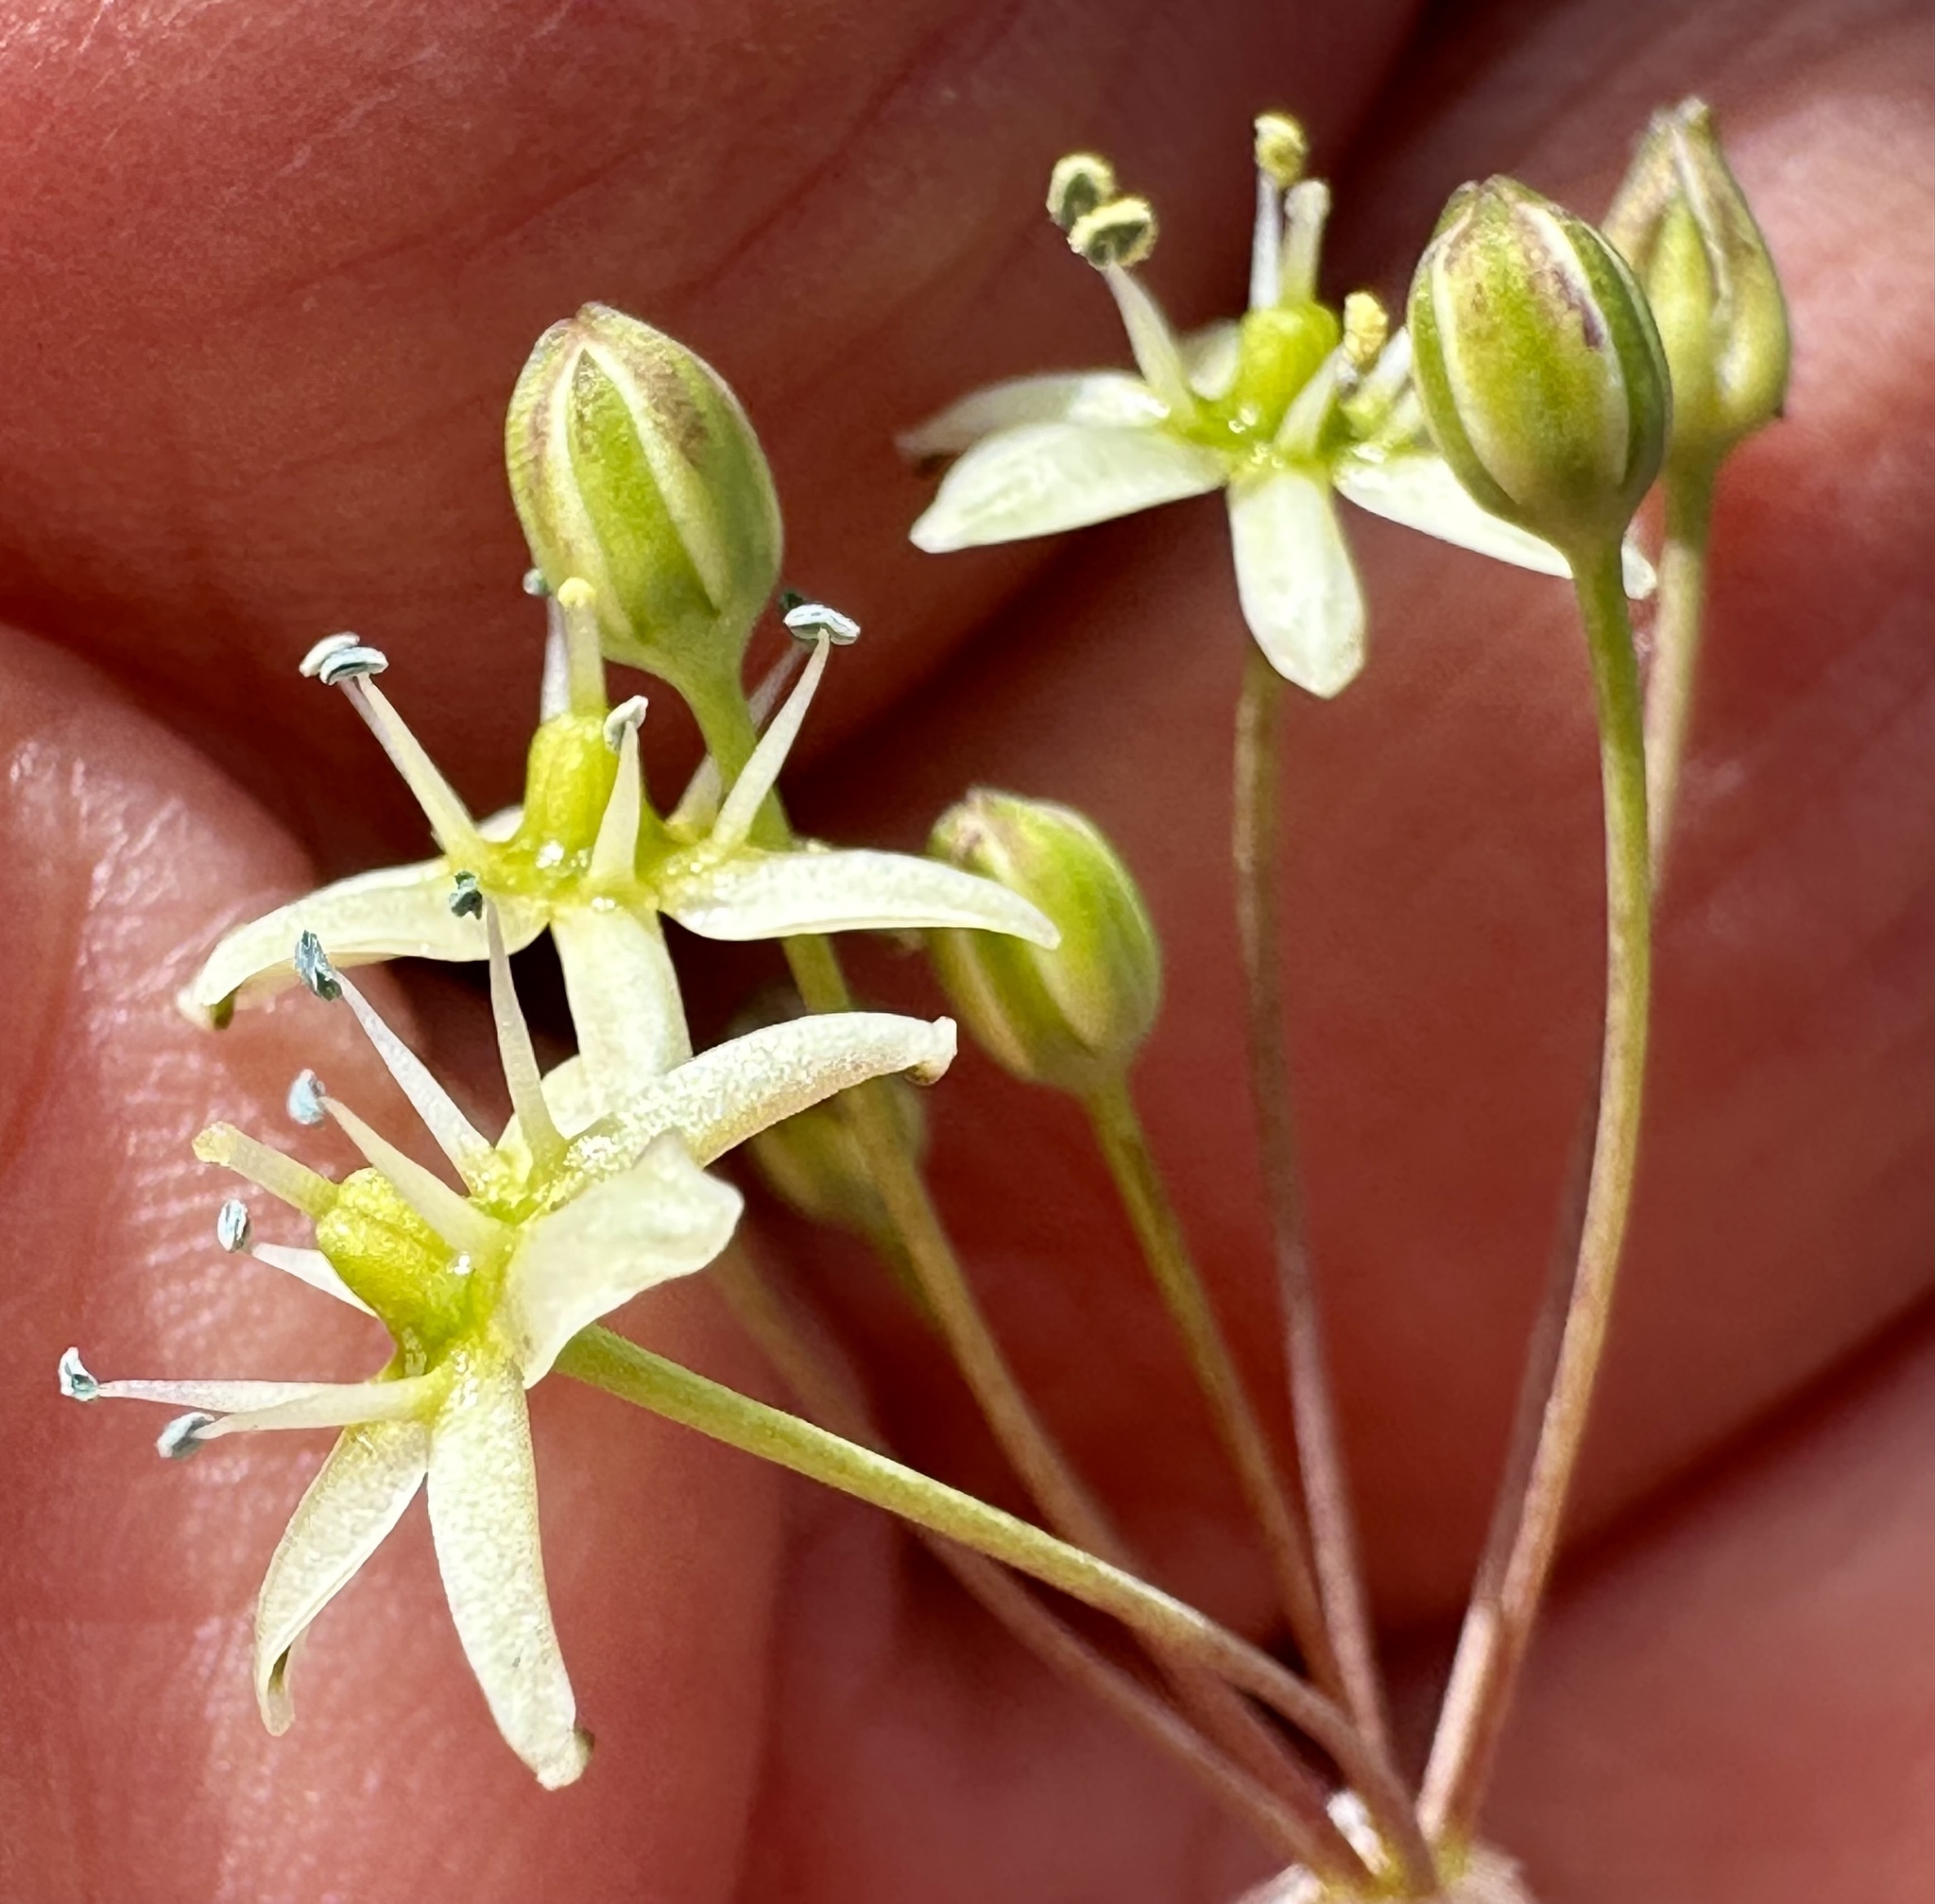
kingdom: Plantae
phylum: Tracheophyta
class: Liliopsida
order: Asparagales
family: Asparagaceae
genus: Muilla
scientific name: Muilla maritima
